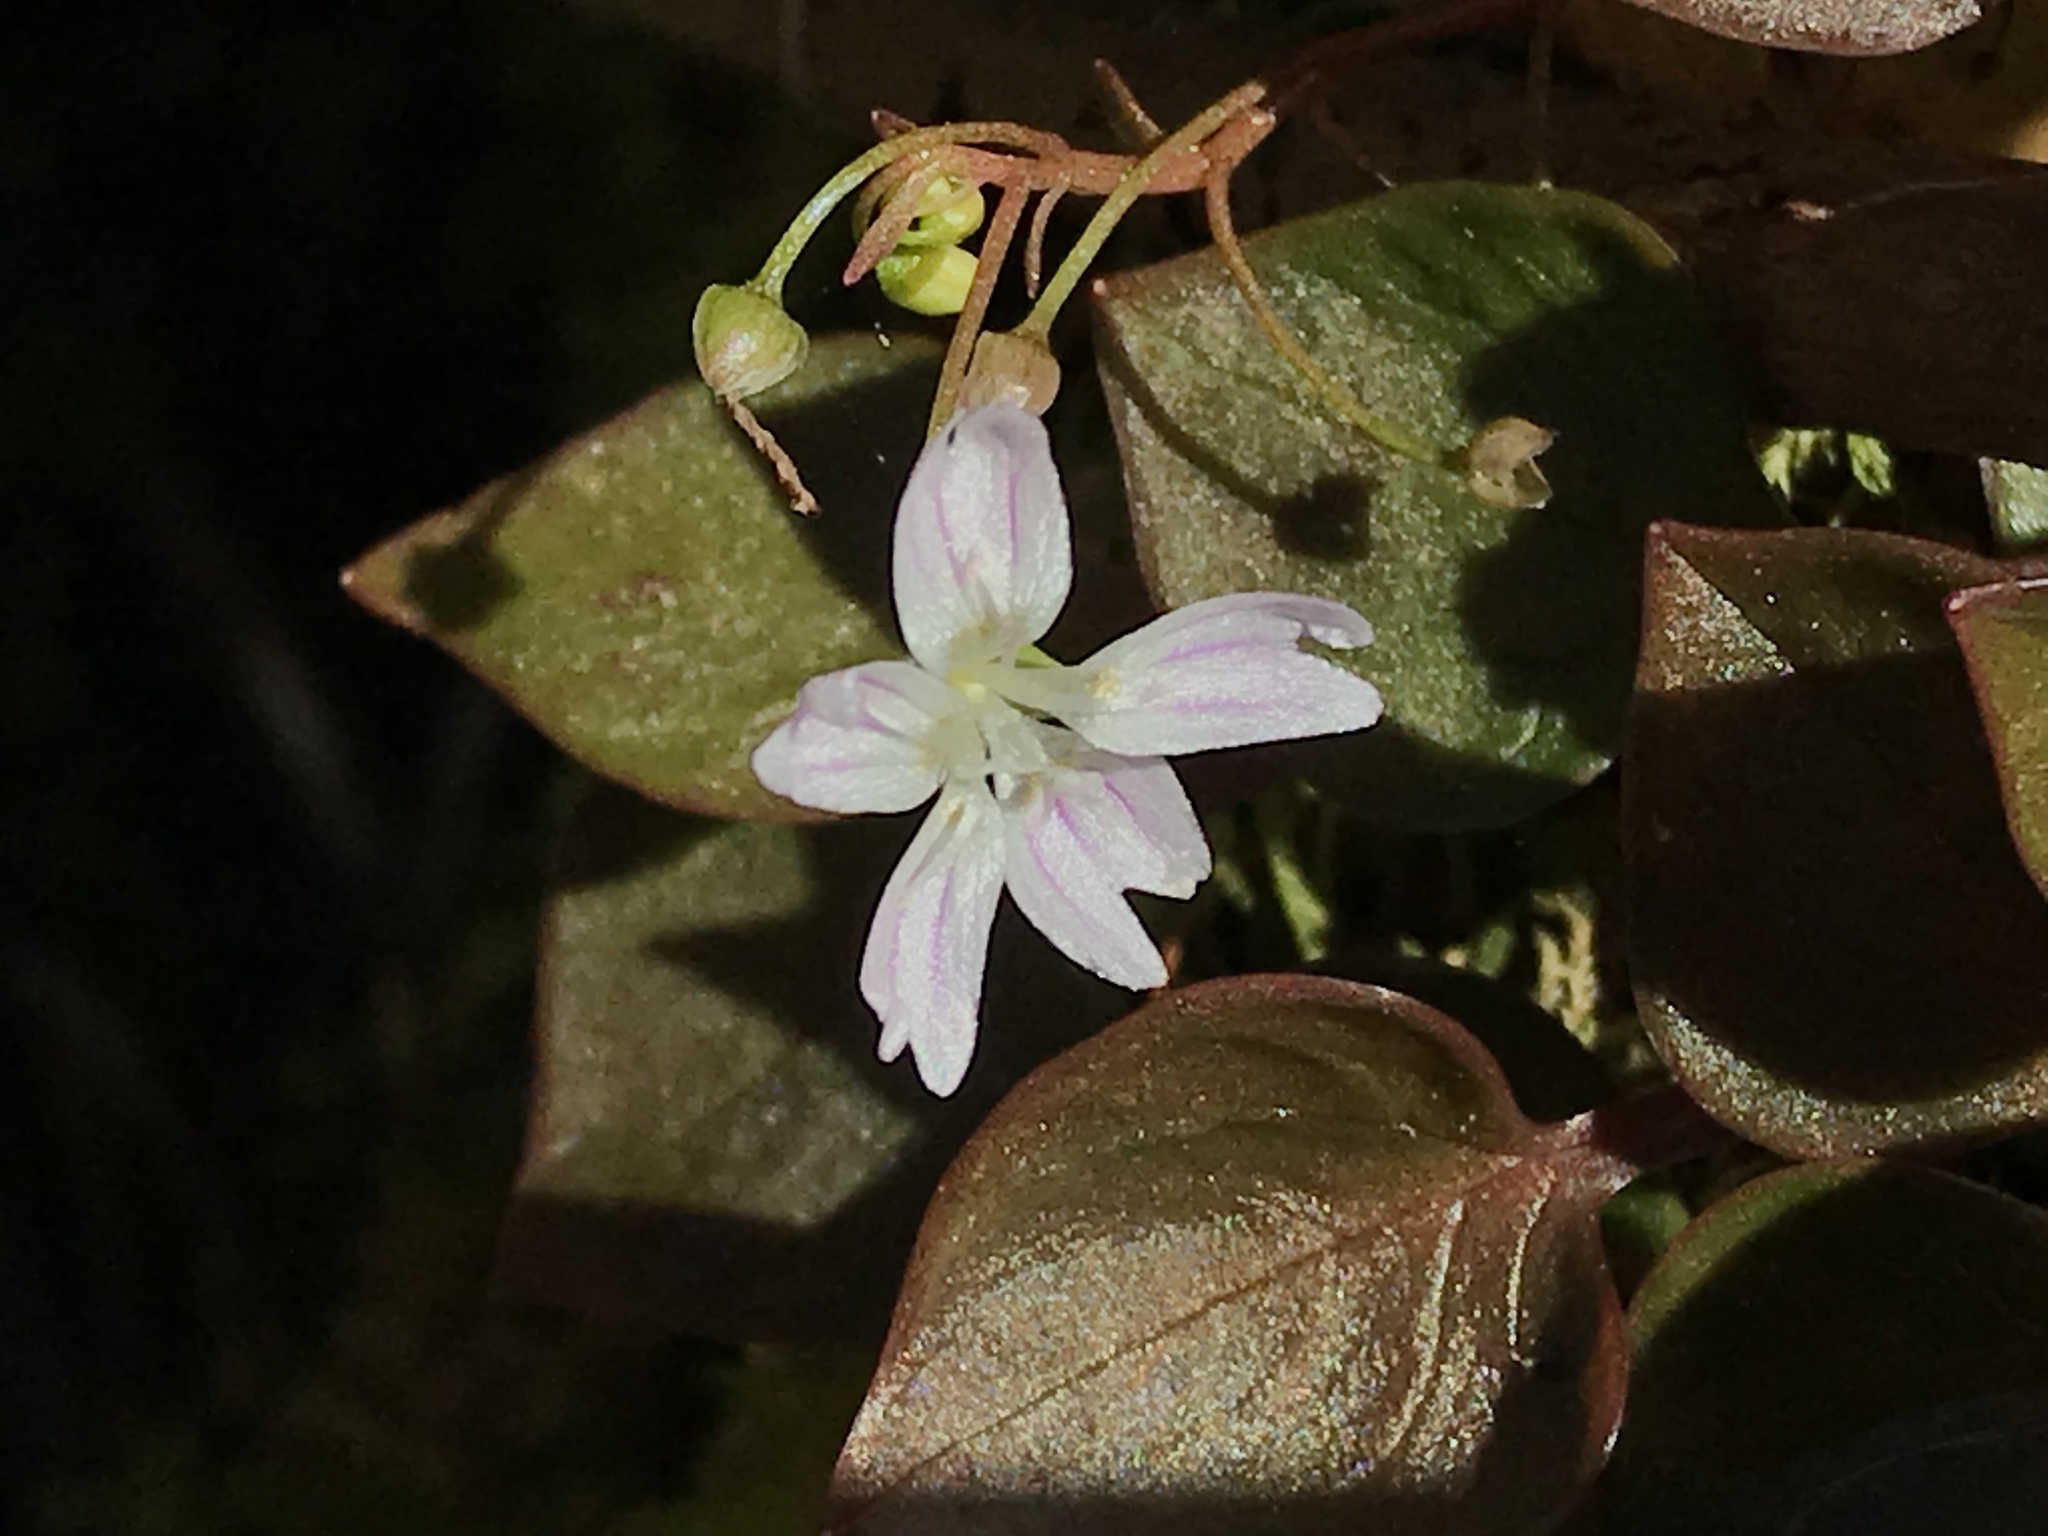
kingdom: Plantae
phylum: Tracheophyta
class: Magnoliopsida
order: Caryophyllales
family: Montiaceae
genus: Claytonia
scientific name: Claytonia sibirica
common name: Pink purslane
